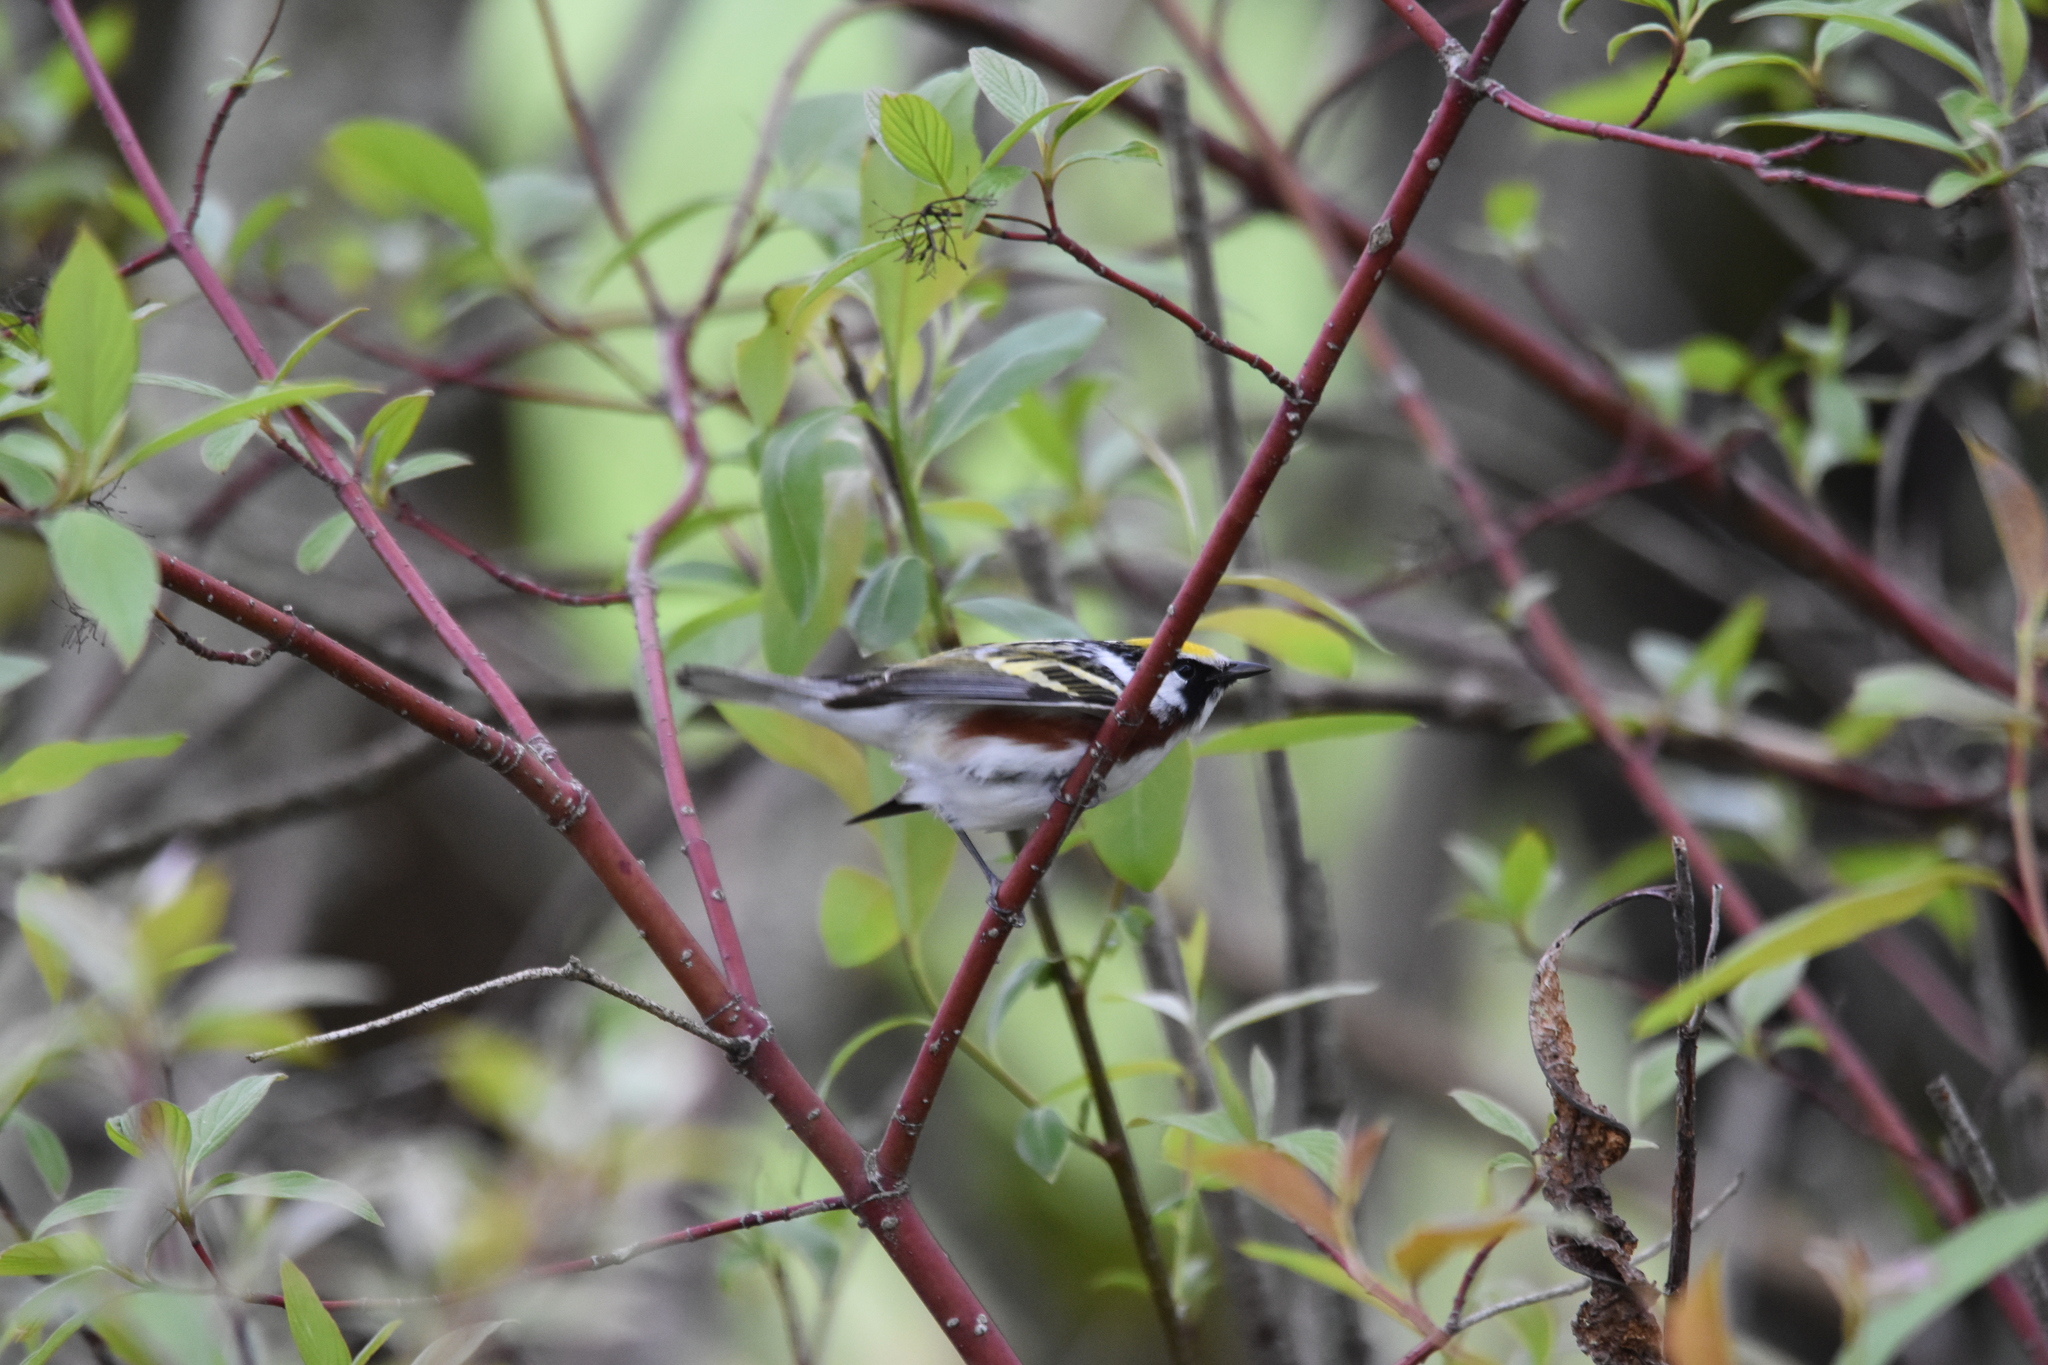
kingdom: Animalia
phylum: Chordata
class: Aves
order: Passeriformes
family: Parulidae
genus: Setophaga
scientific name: Setophaga pensylvanica
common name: Chestnut-sided warbler
